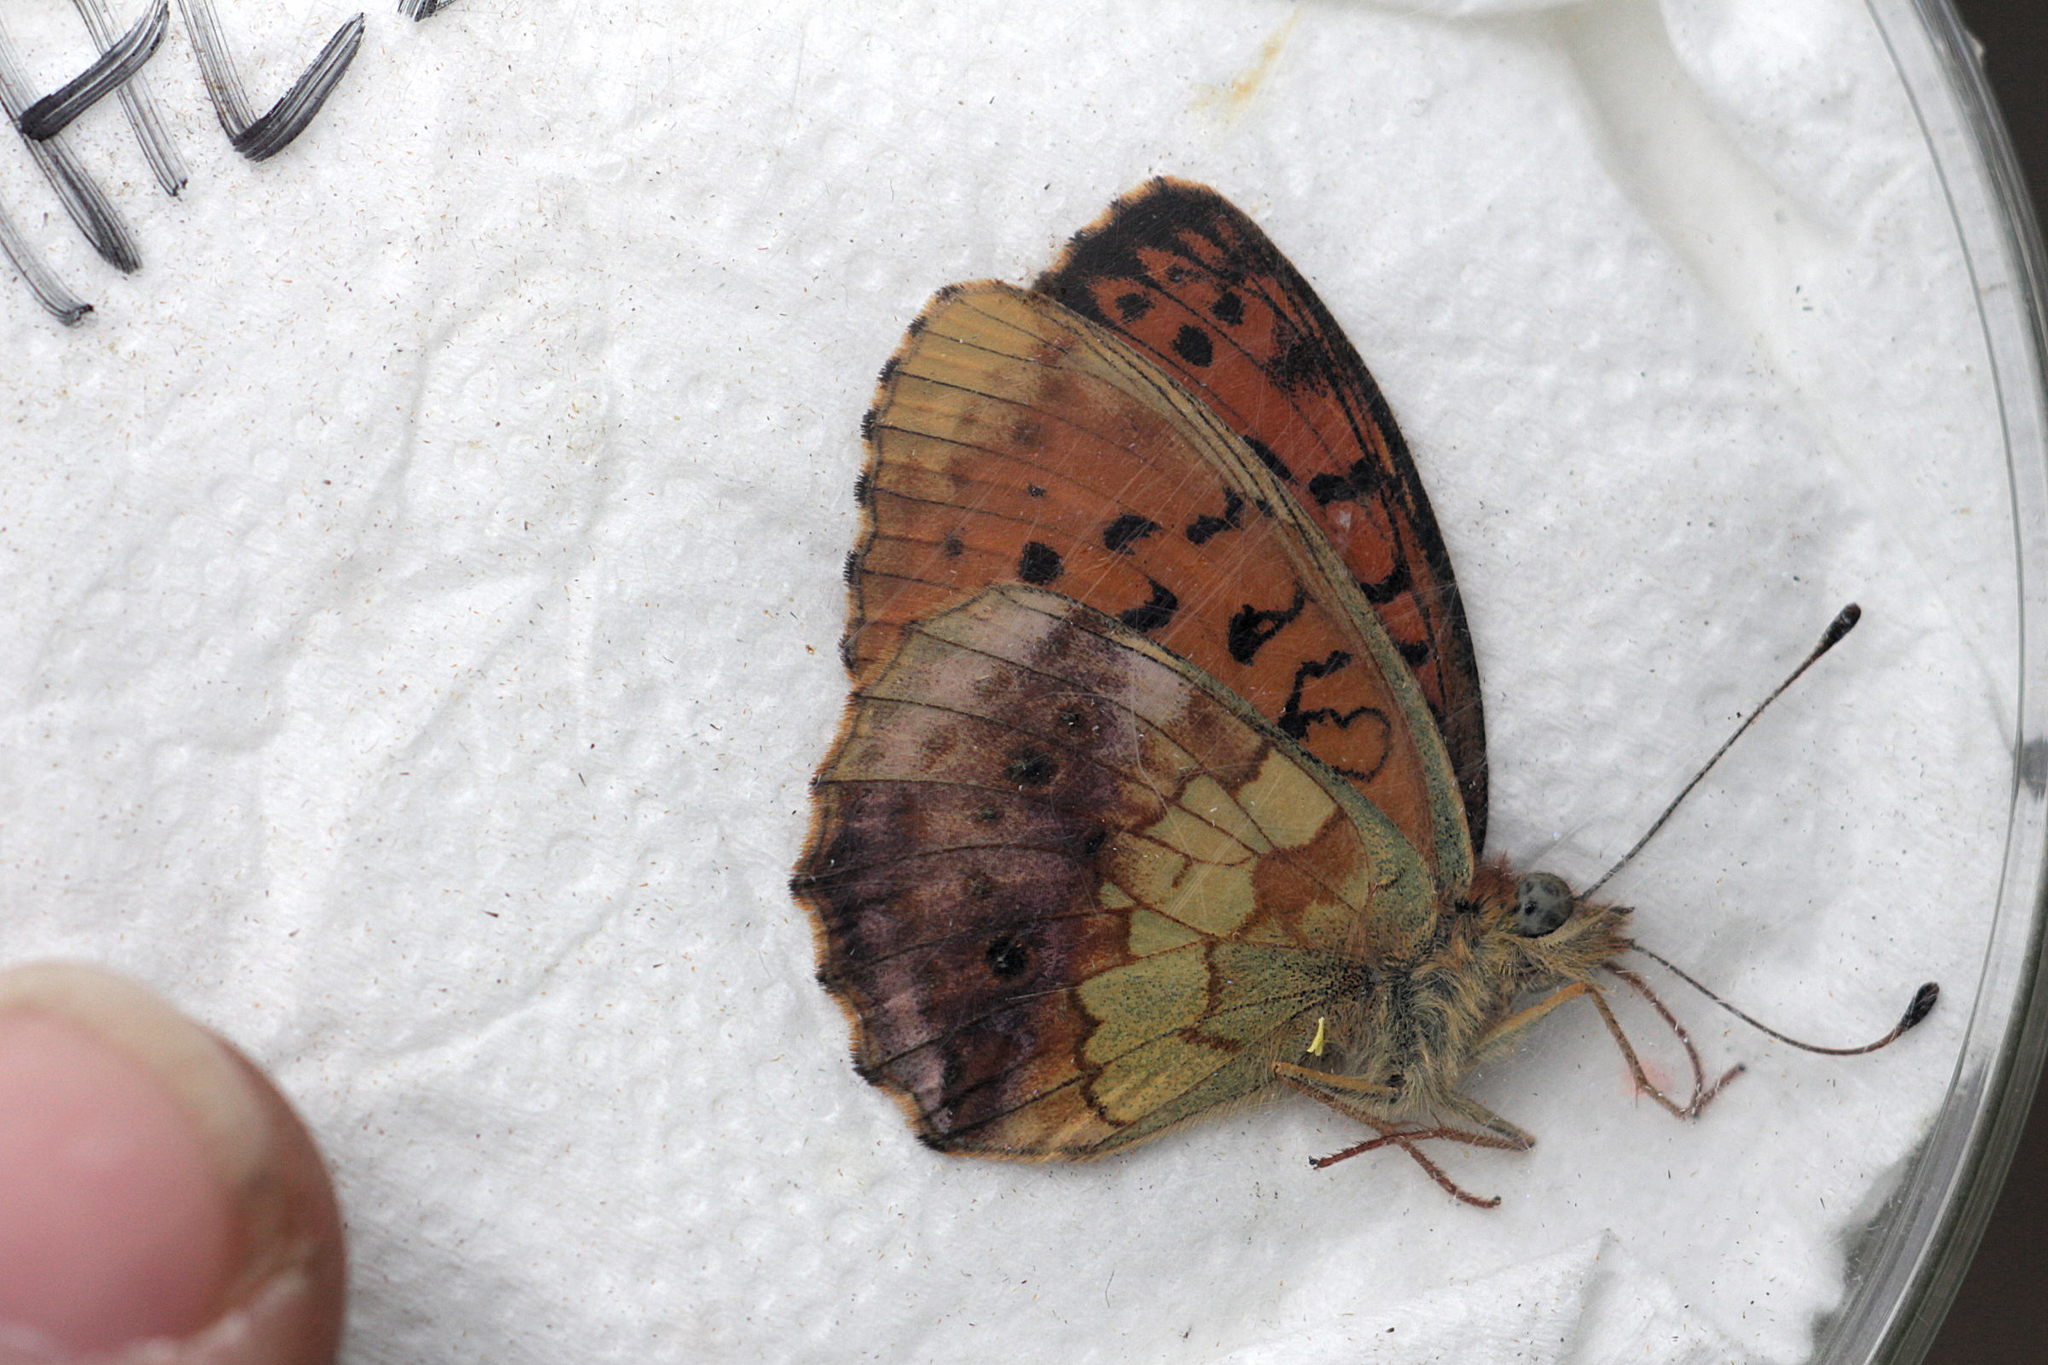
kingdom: Animalia
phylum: Arthropoda
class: Insecta
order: Lepidoptera
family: Nymphalidae
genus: Brenthis
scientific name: Brenthis daphne
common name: Marbled fritillary
